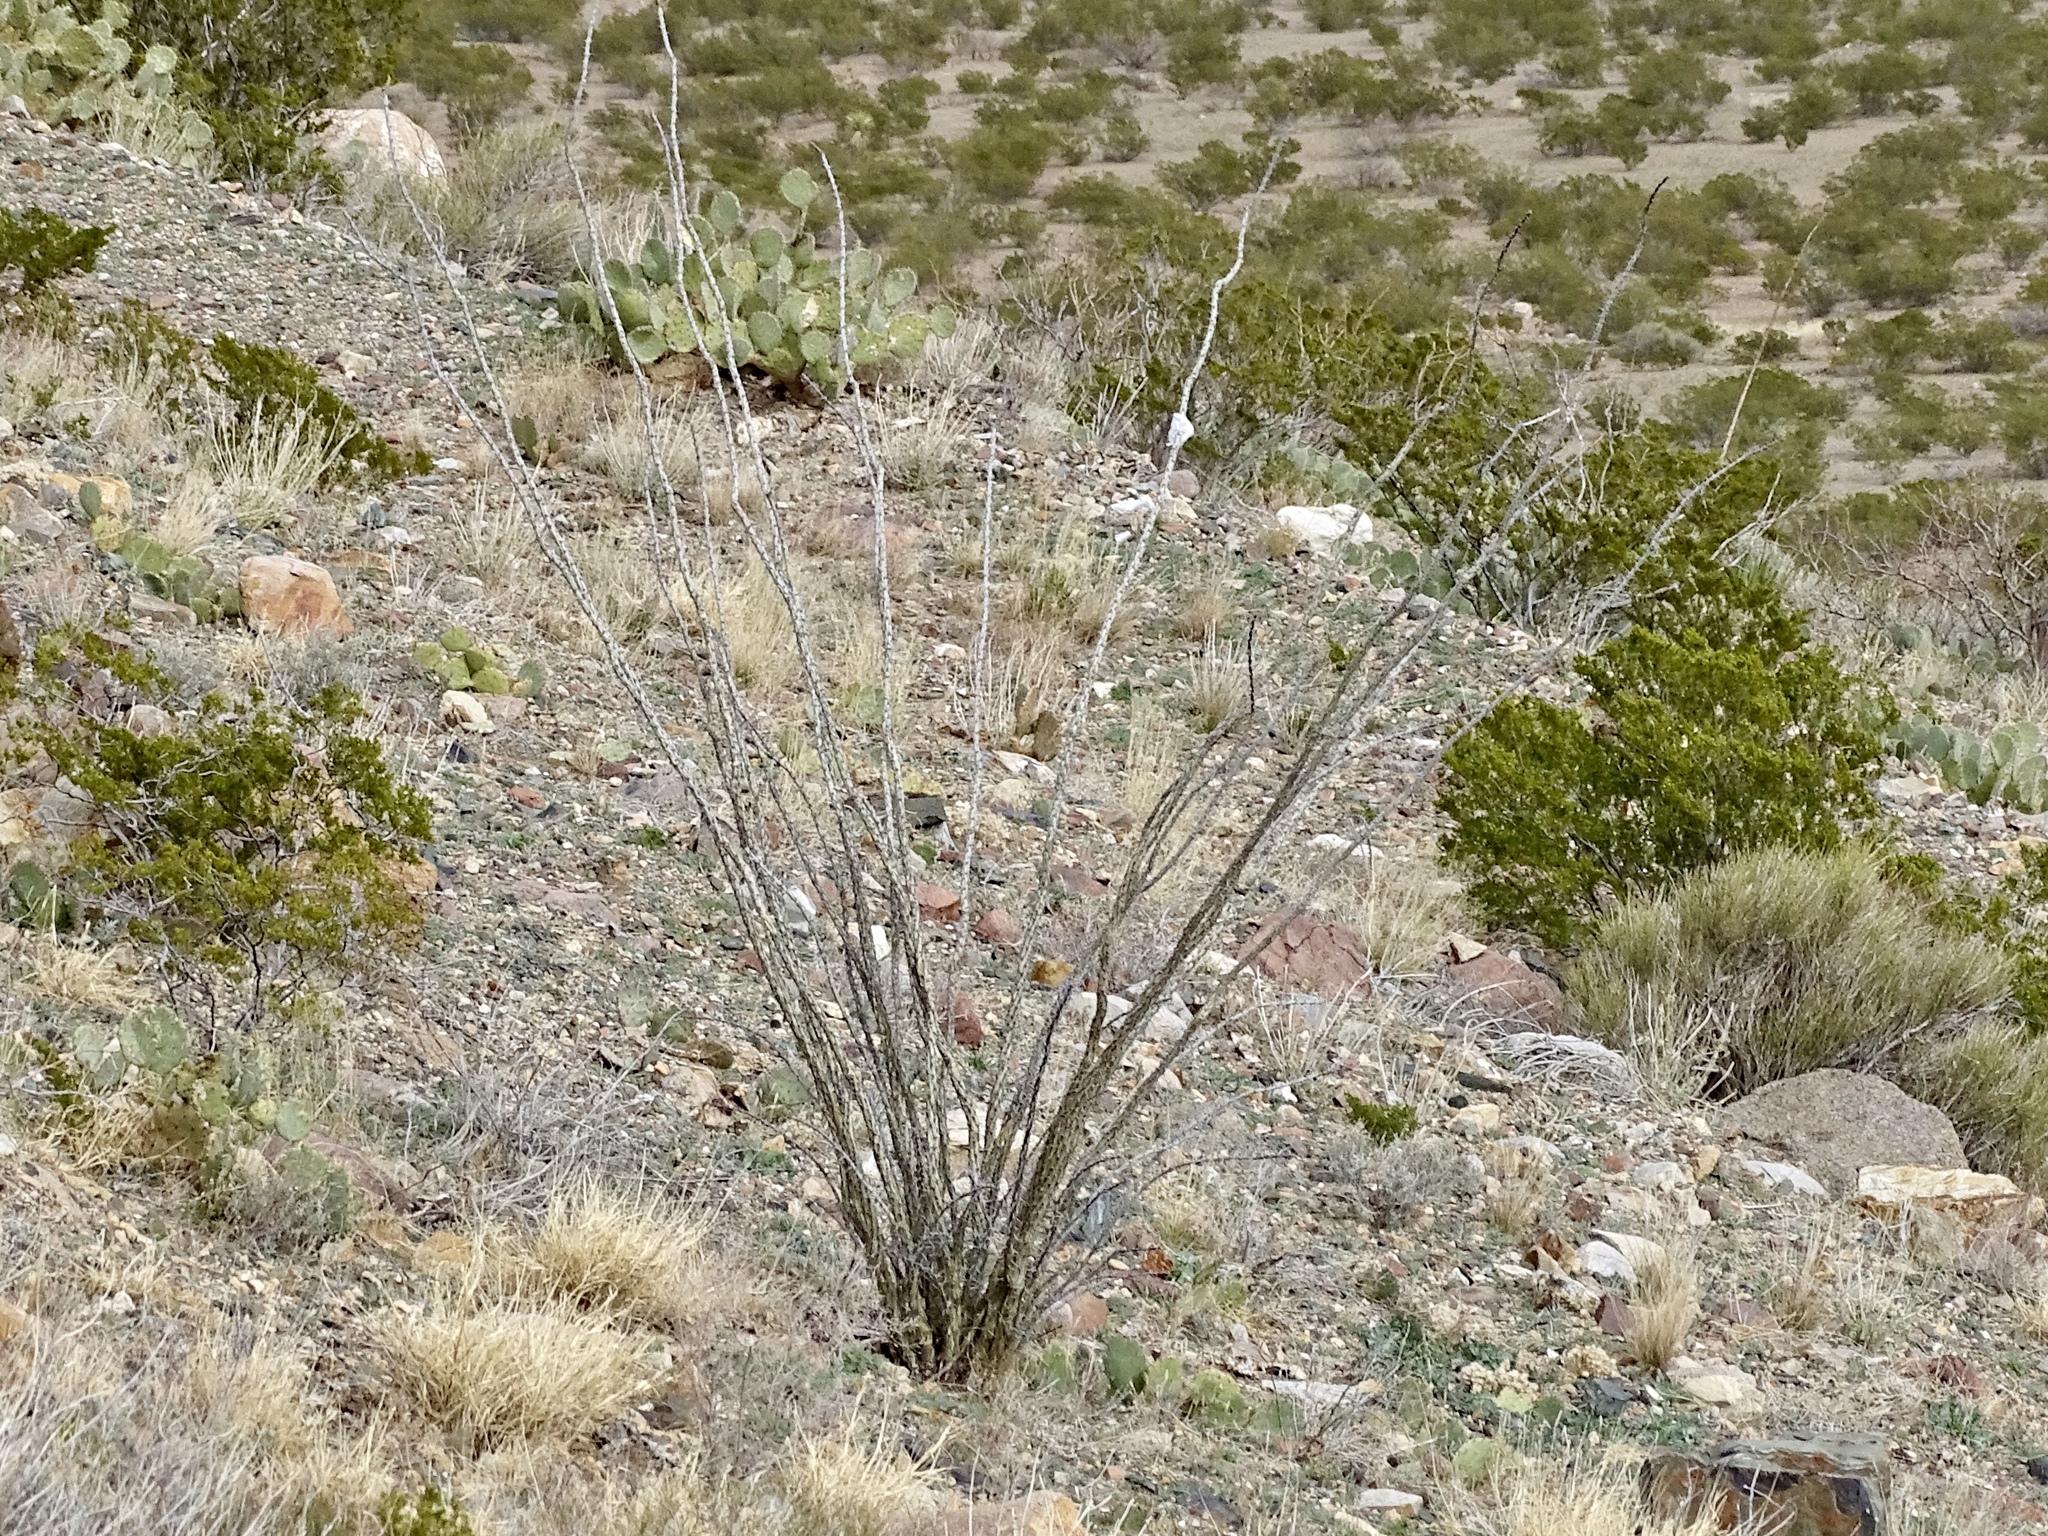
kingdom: Plantae
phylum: Tracheophyta
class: Magnoliopsida
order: Ericales
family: Fouquieriaceae
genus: Fouquieria
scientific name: Fouquieria splendens
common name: Vine-cactus
